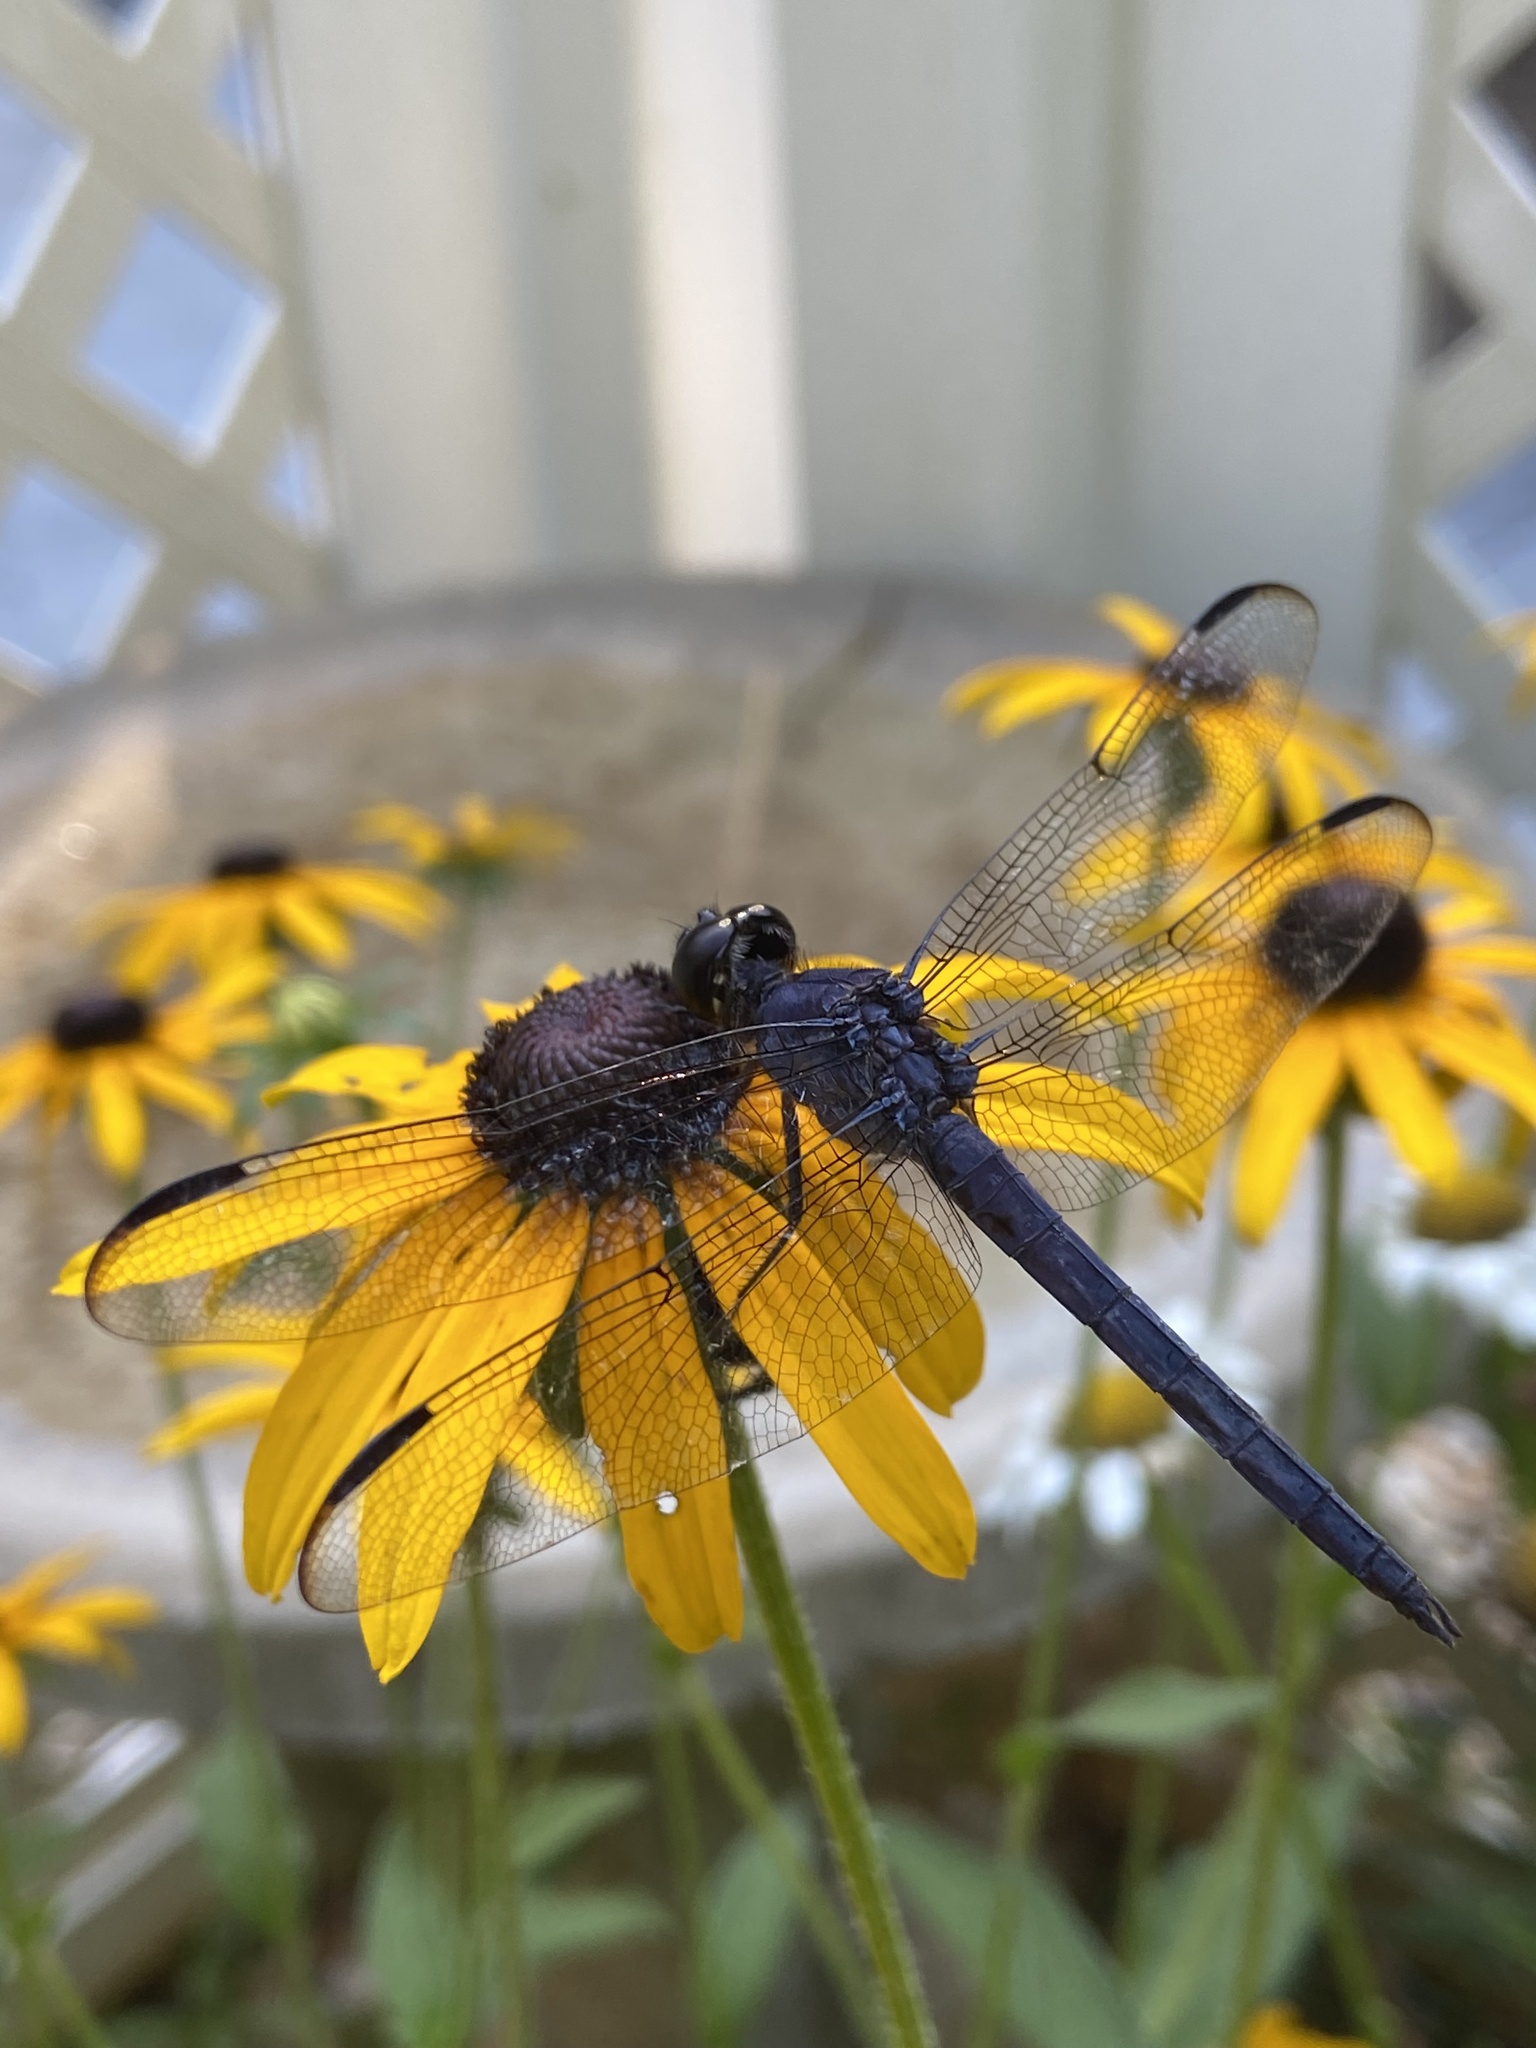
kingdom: Animalia
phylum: Arthropoda
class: Insecta
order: Odonata
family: Libellulidae
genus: Libellula
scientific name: Libellula incesta
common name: Slaty skimmer
